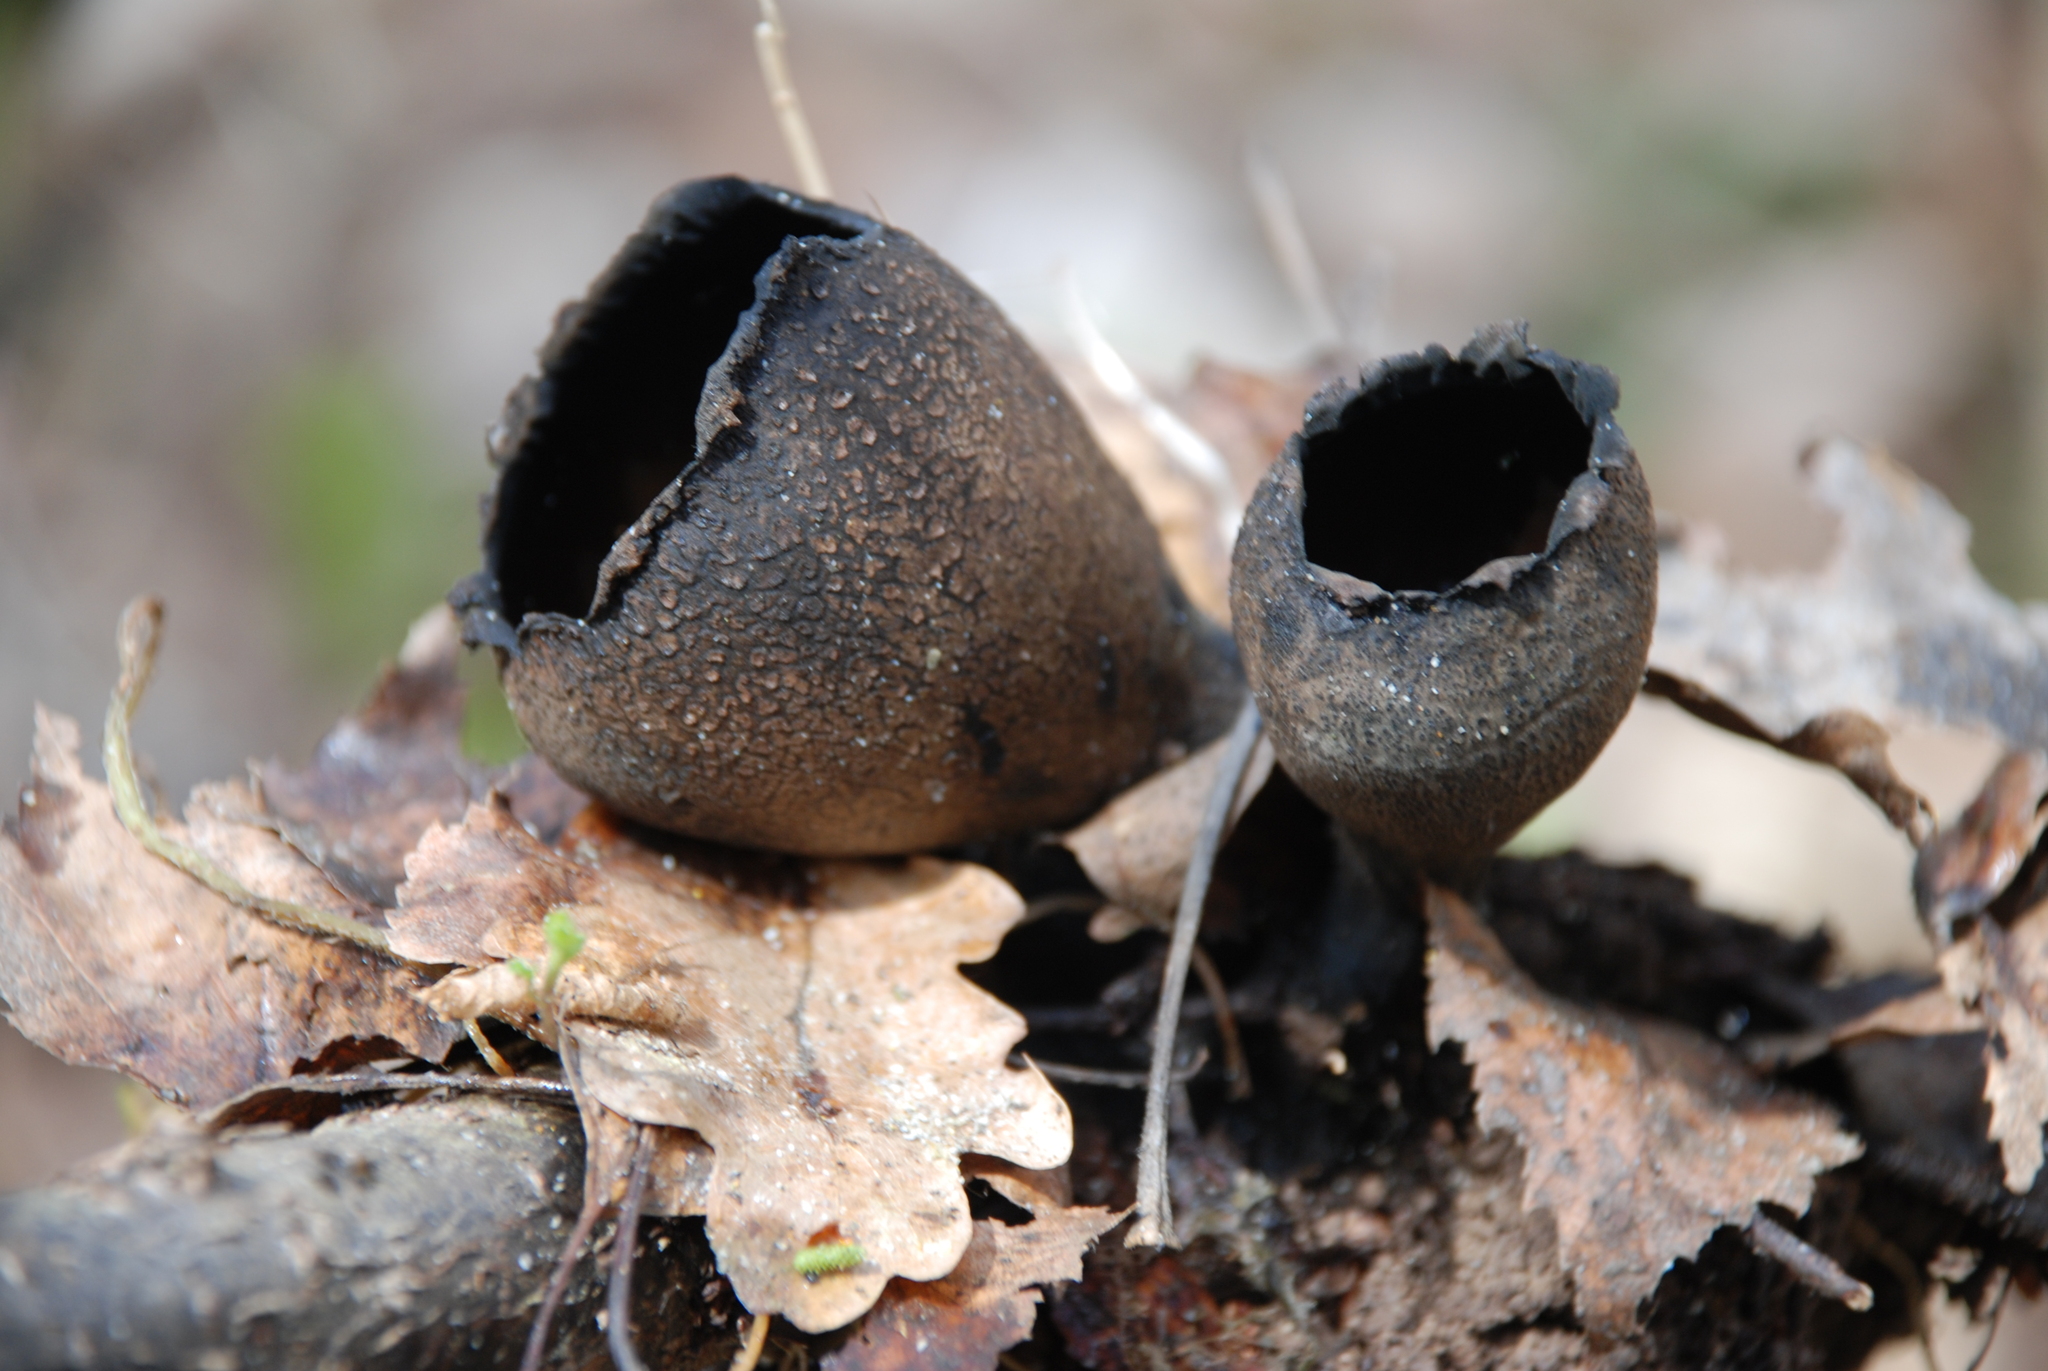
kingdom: Fungi
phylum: Ascomycota
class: Pezizomycetes
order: Pezizales
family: Sarcosomataceae
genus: Urnula
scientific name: Urnula craterium
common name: Devil's urn
